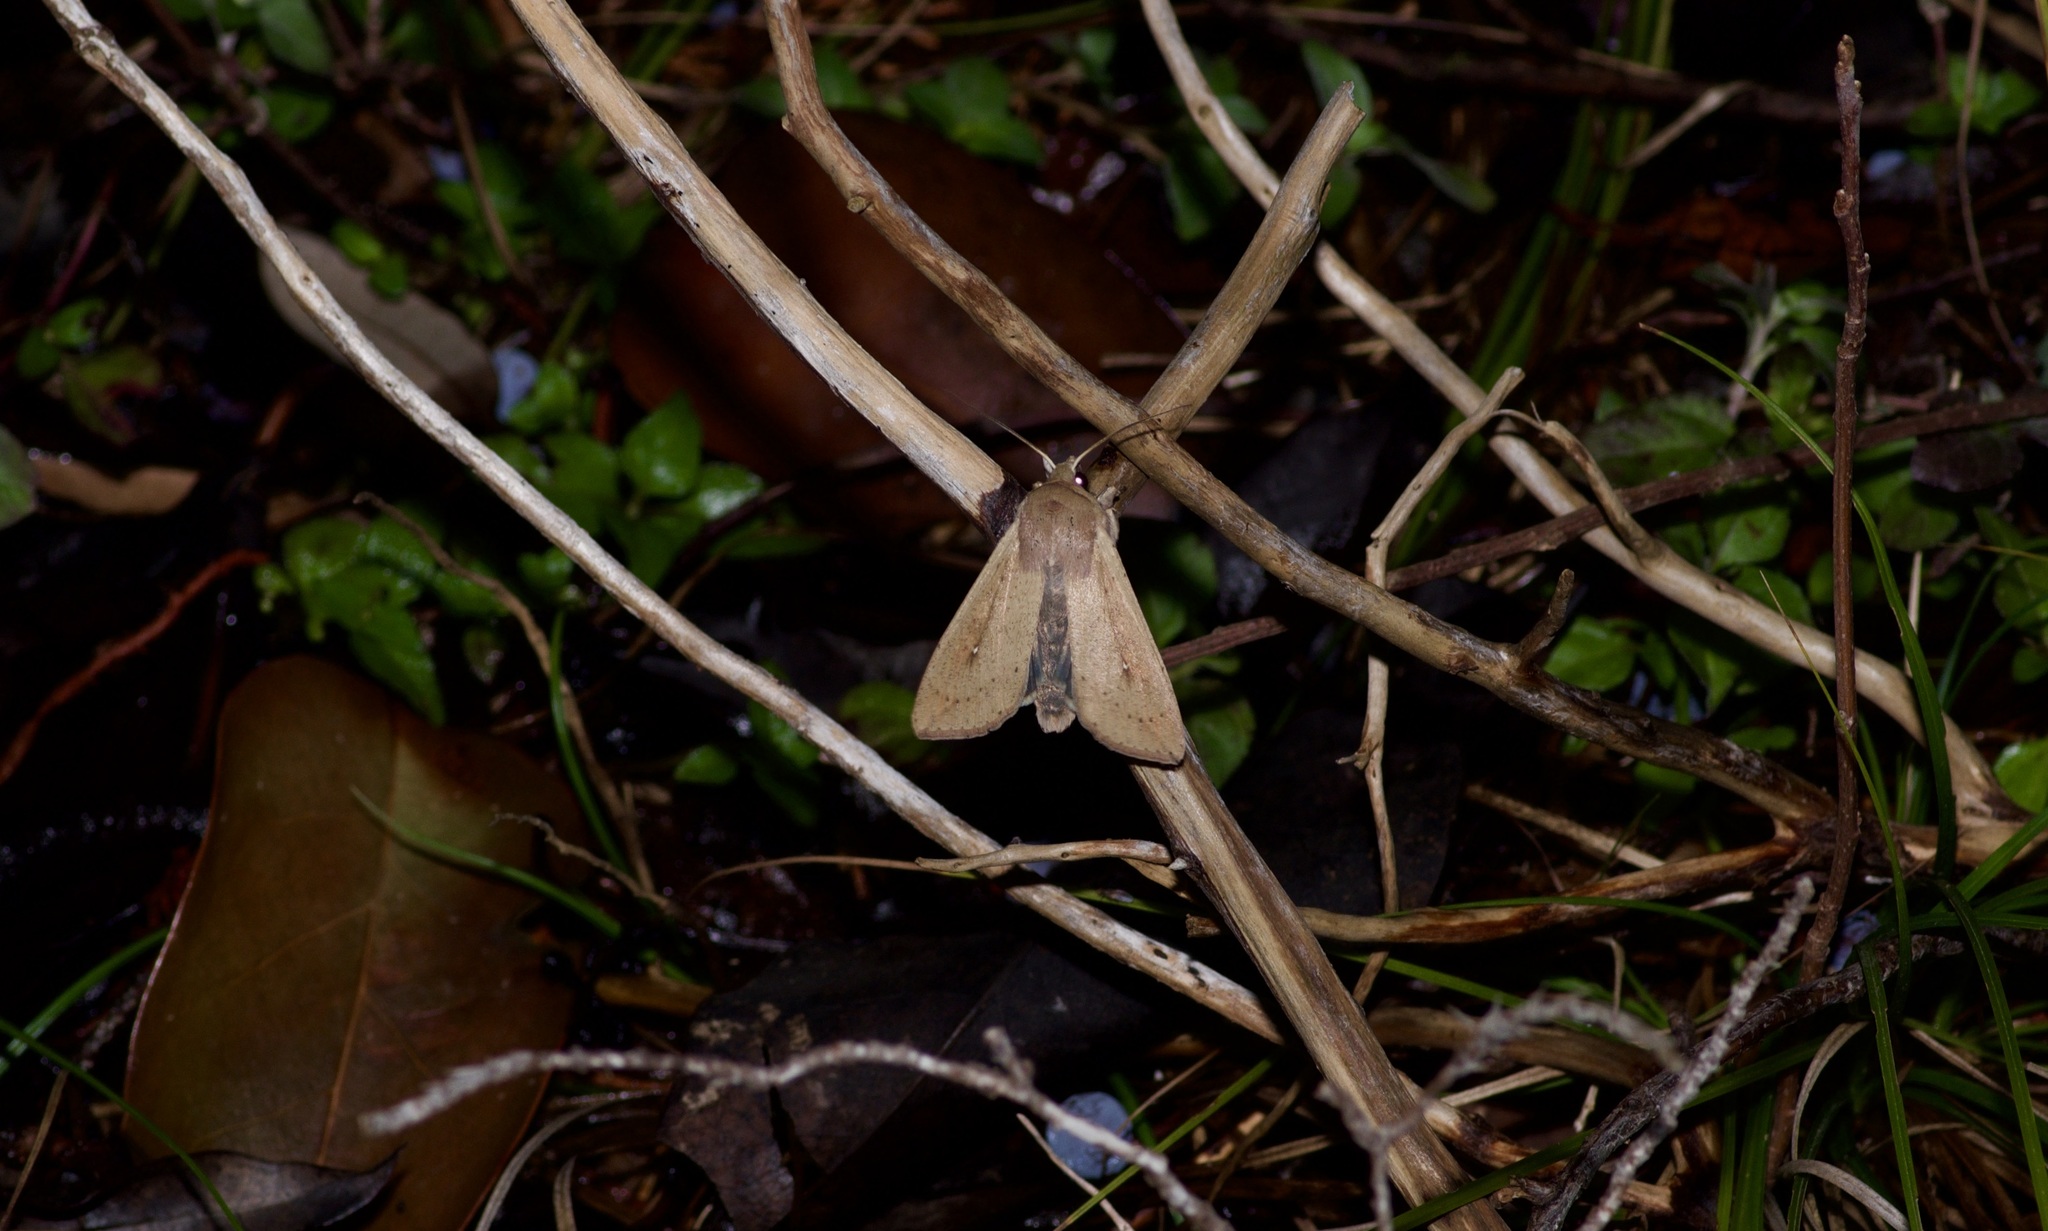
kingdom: Animalia
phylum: Arthropoda
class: Insecta
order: Lepidoptera
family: Noctuidae
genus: Mythimna
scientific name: Mythimna unipuncta
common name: White-speck
